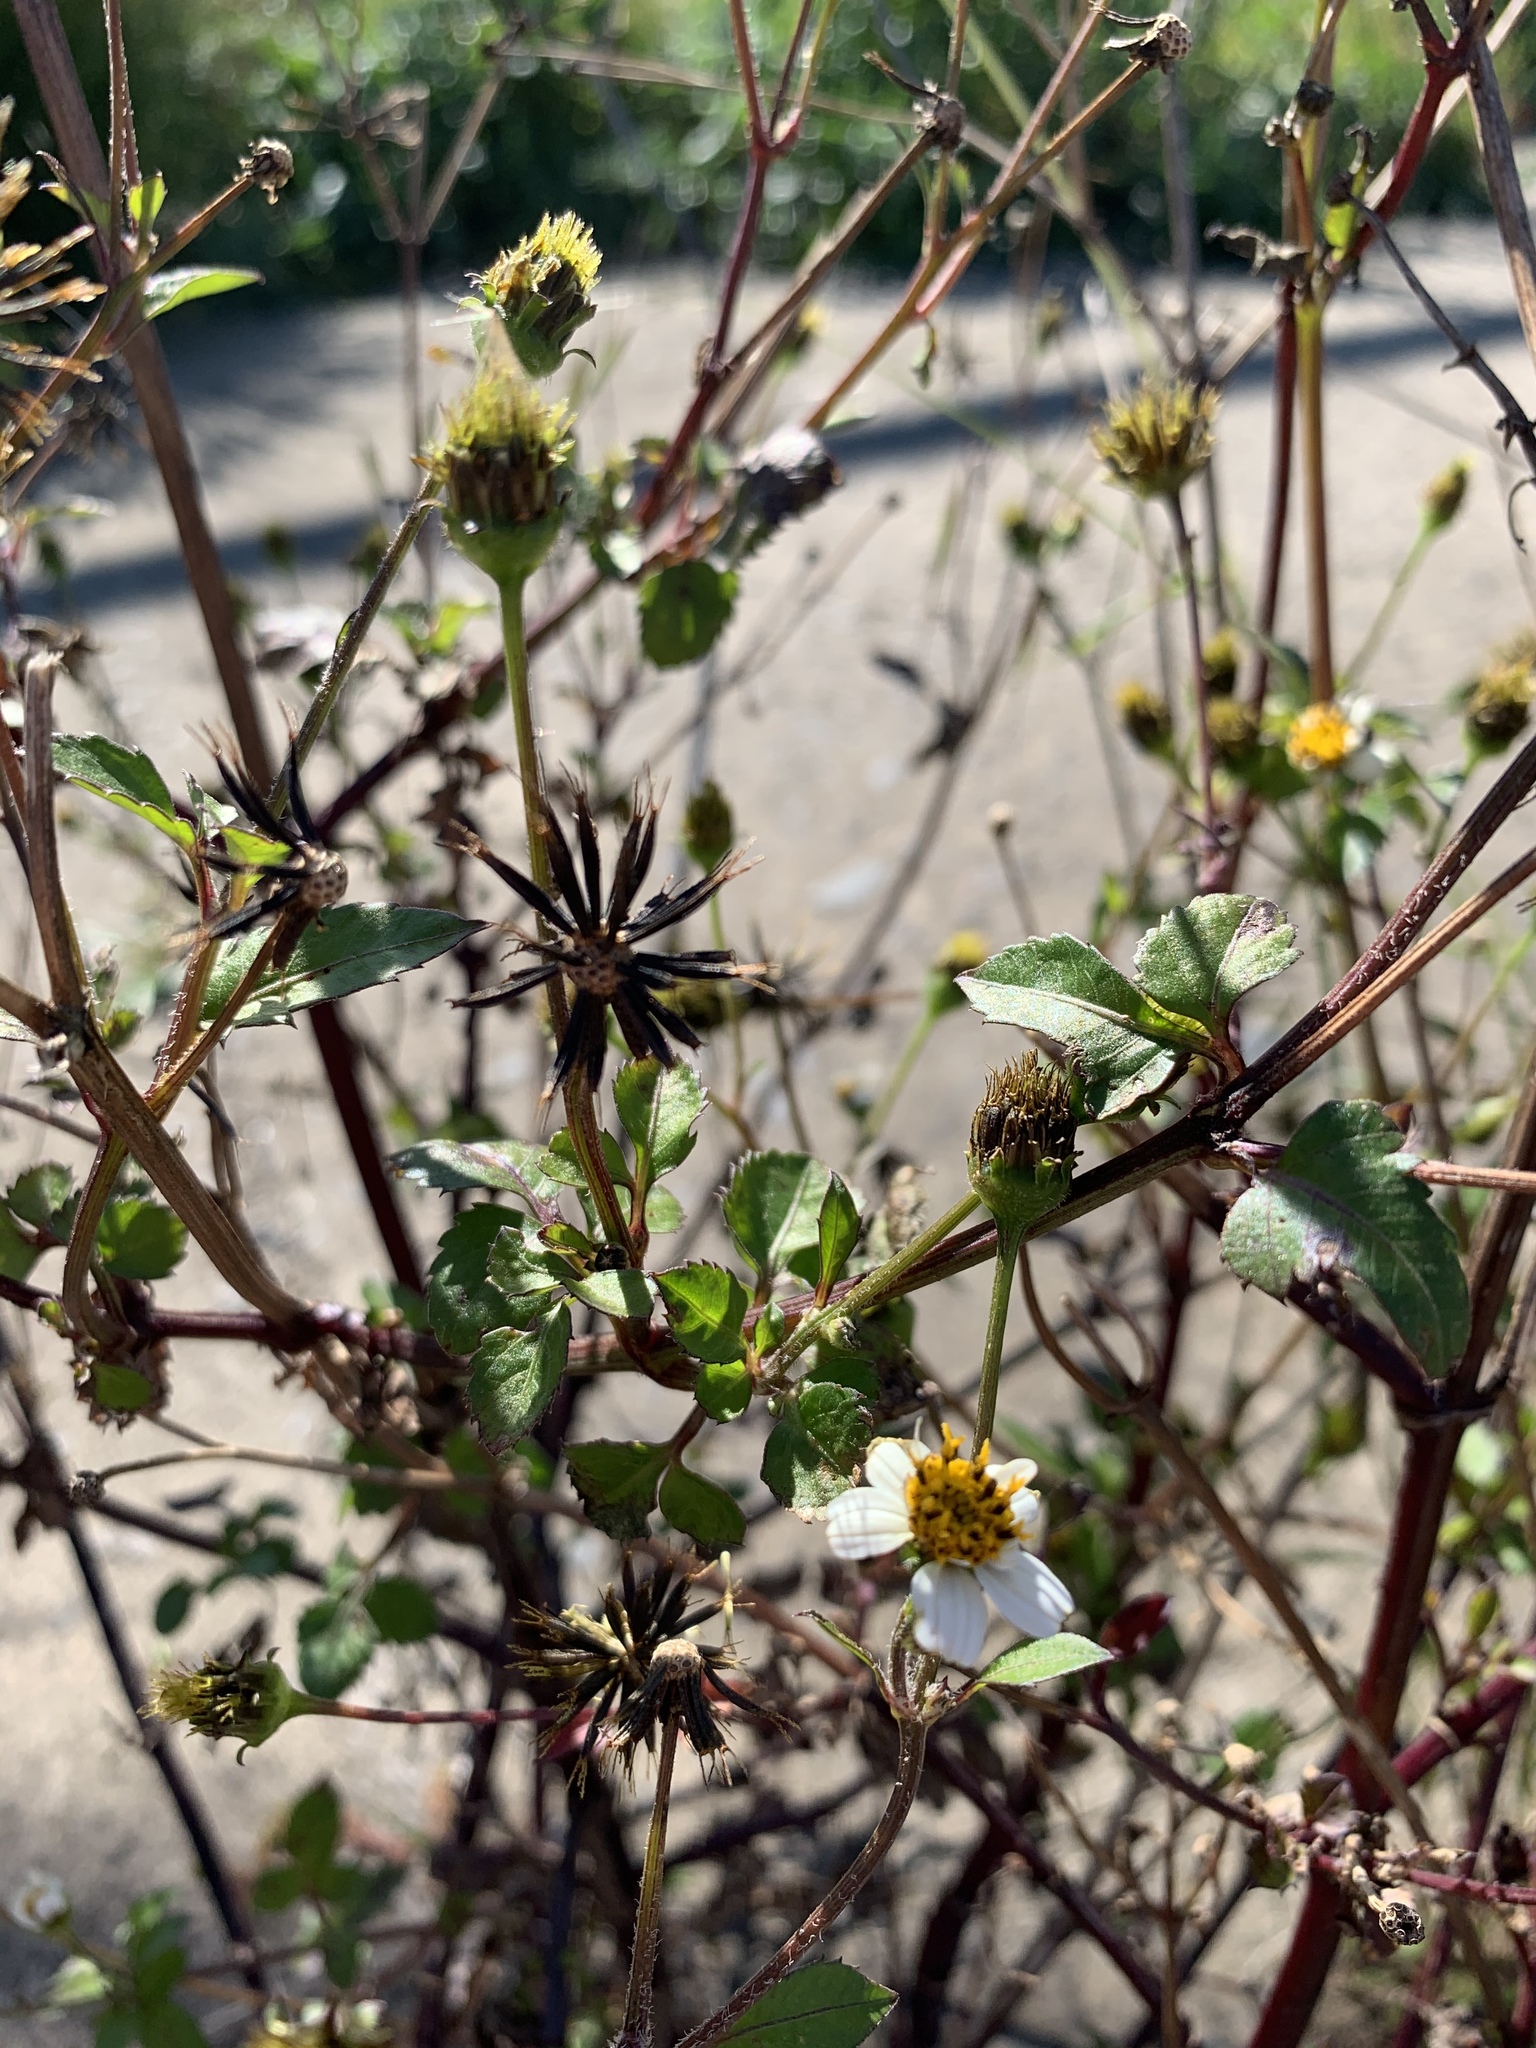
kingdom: Plantae
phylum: Tracheophyta
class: Magnoliopsida
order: Asterales
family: Asteraceae
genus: Bidens
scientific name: Bidens pilosa
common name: Black-jack
